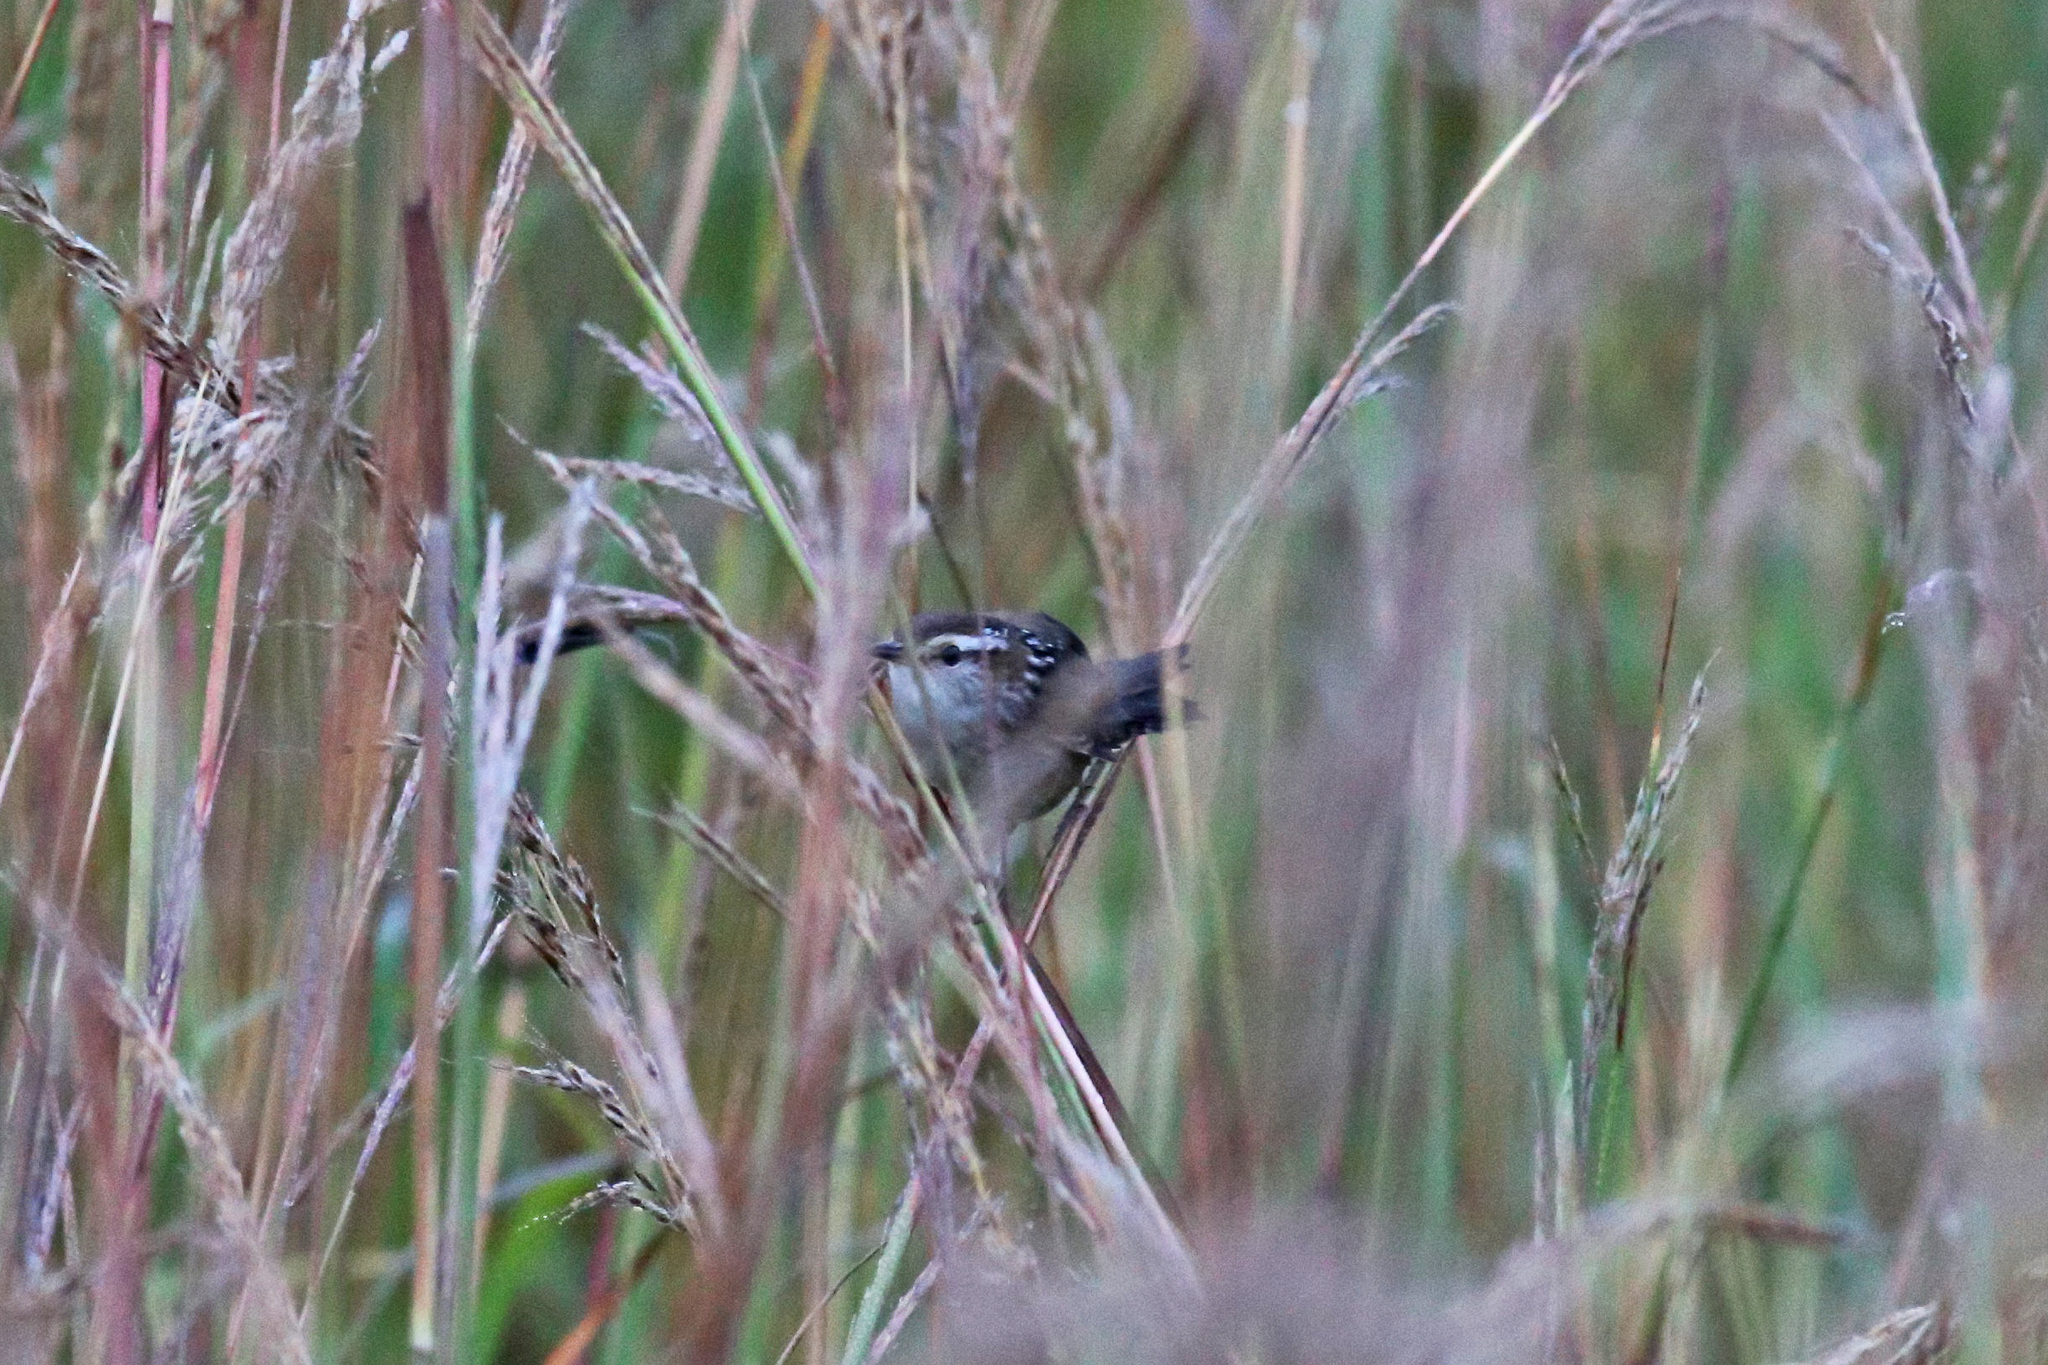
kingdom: Animalia
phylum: Chordata
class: Aves
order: Passeriformes
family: Troglodytidae
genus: Cistothorus
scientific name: Cistothorus palustris
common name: Marsh wren
